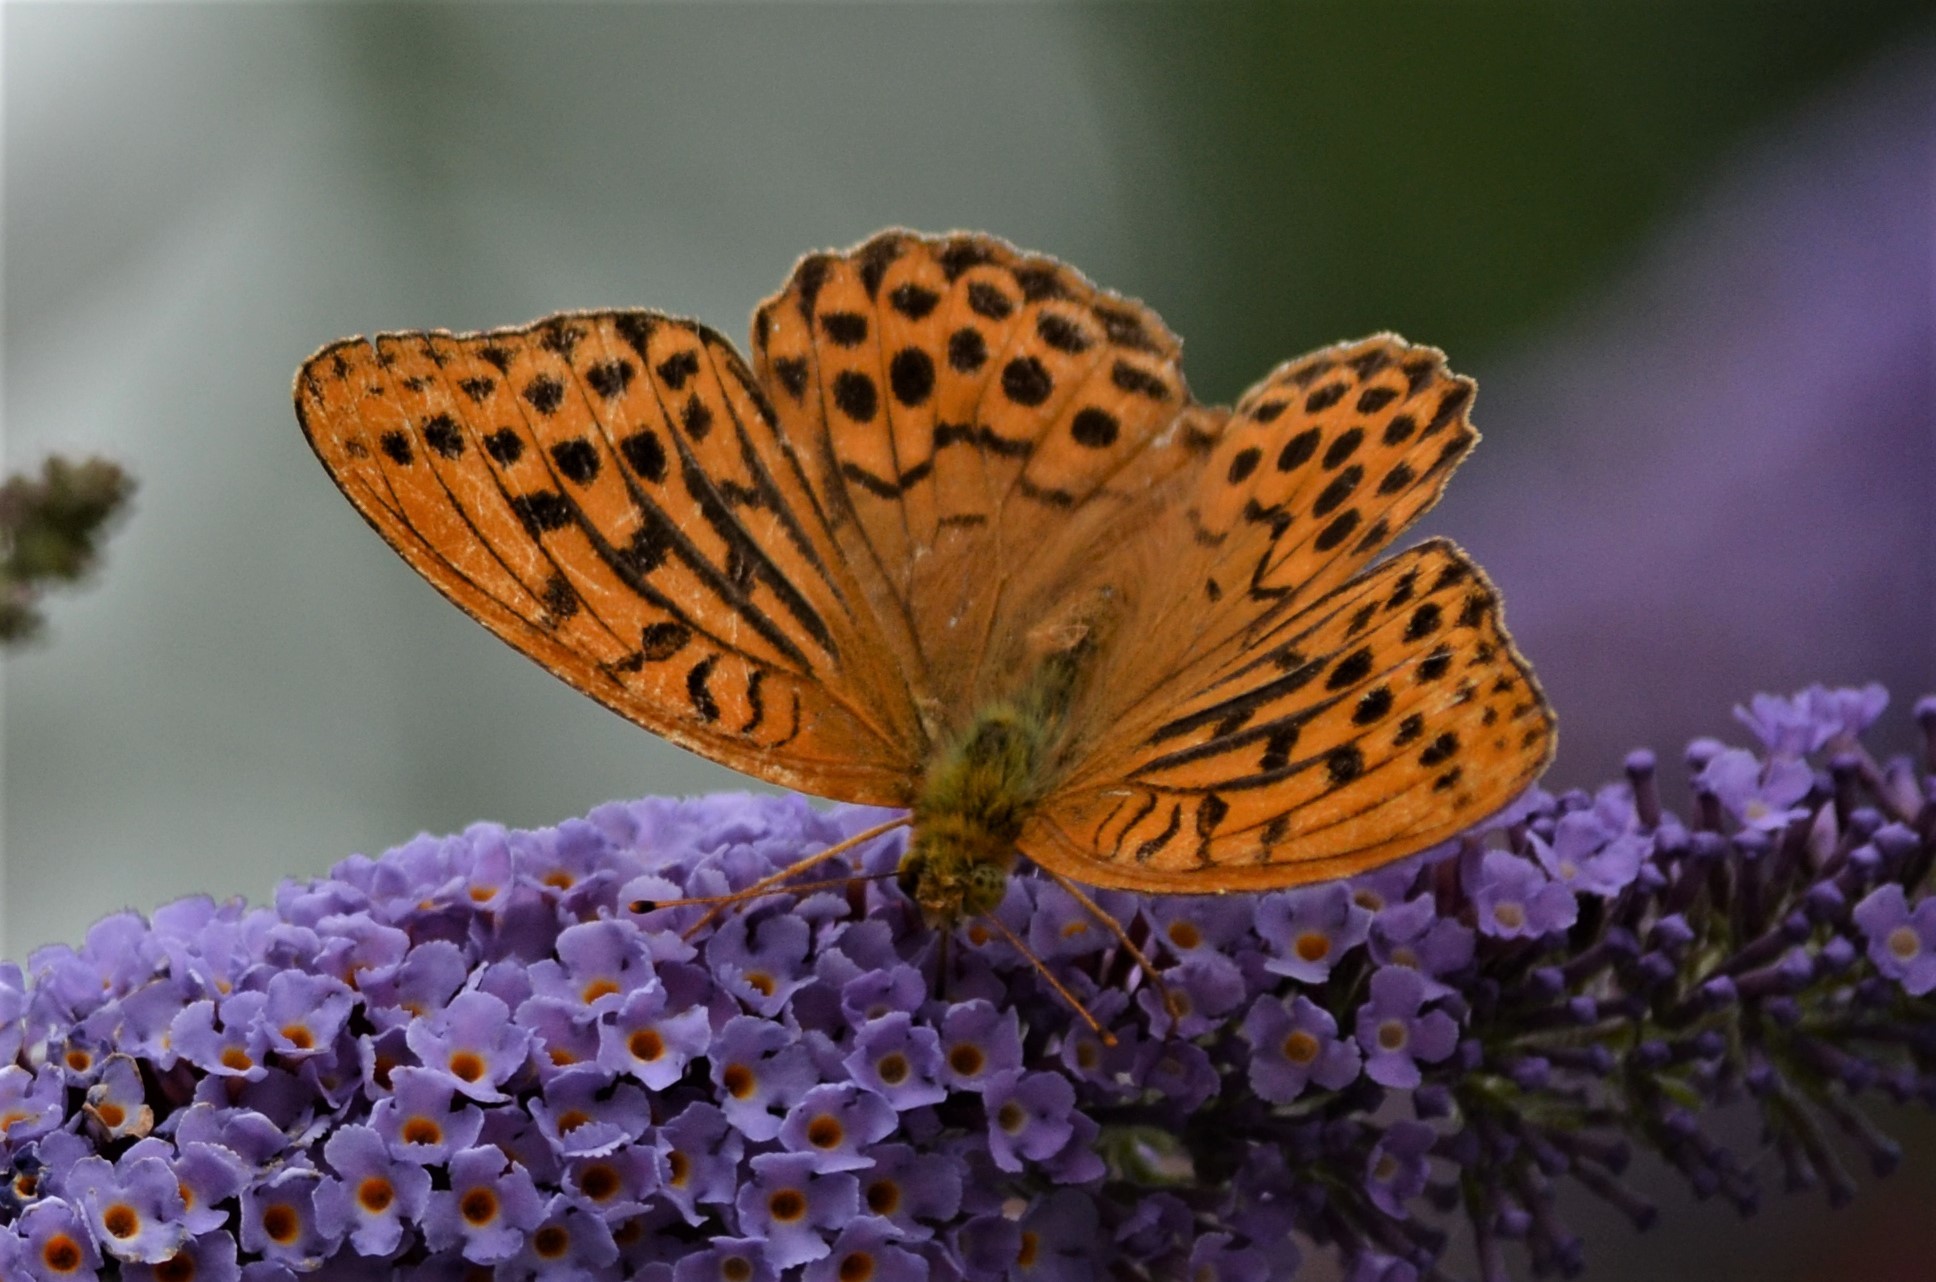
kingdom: Animalia
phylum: Arthropoda
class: Insecta
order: Lepidoptera
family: Nymphalidae
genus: Argynnis
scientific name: Argynnis paphia
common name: Silver-washed fritillary
